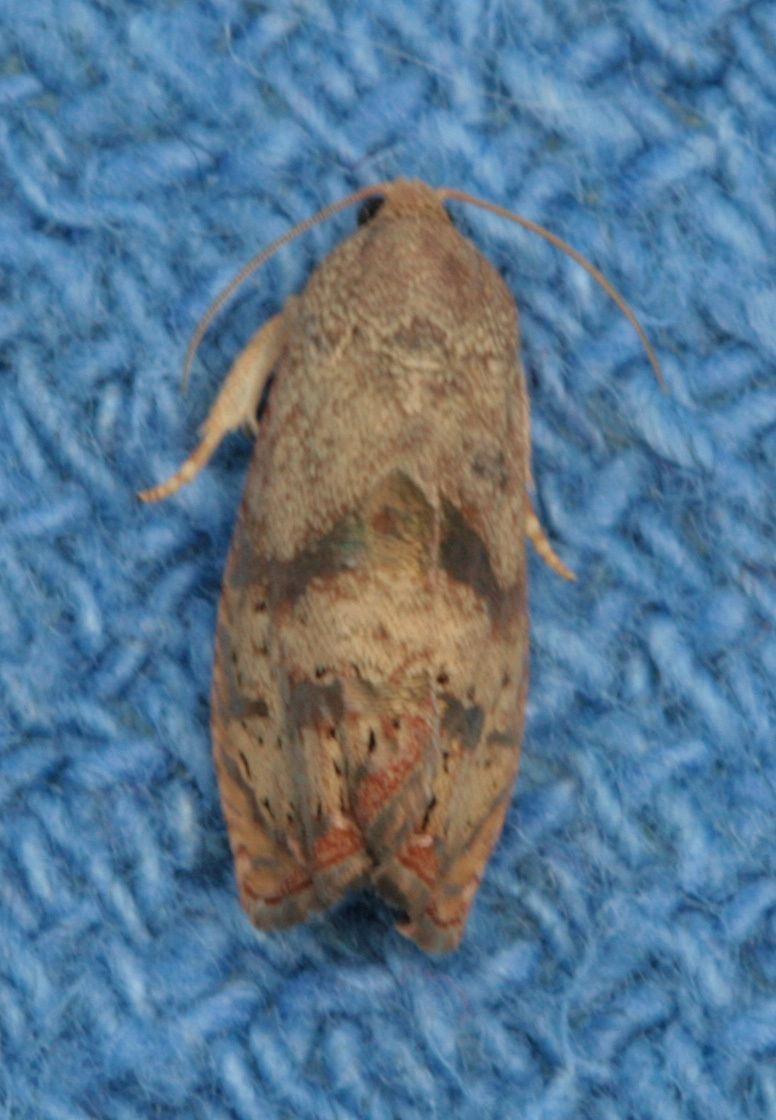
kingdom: Animalia
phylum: Arthropoda
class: Insecta
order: Lepidoptera
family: Tortricidae
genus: Cydia
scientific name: Cydia latiferreana
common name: Filbertworm moth
